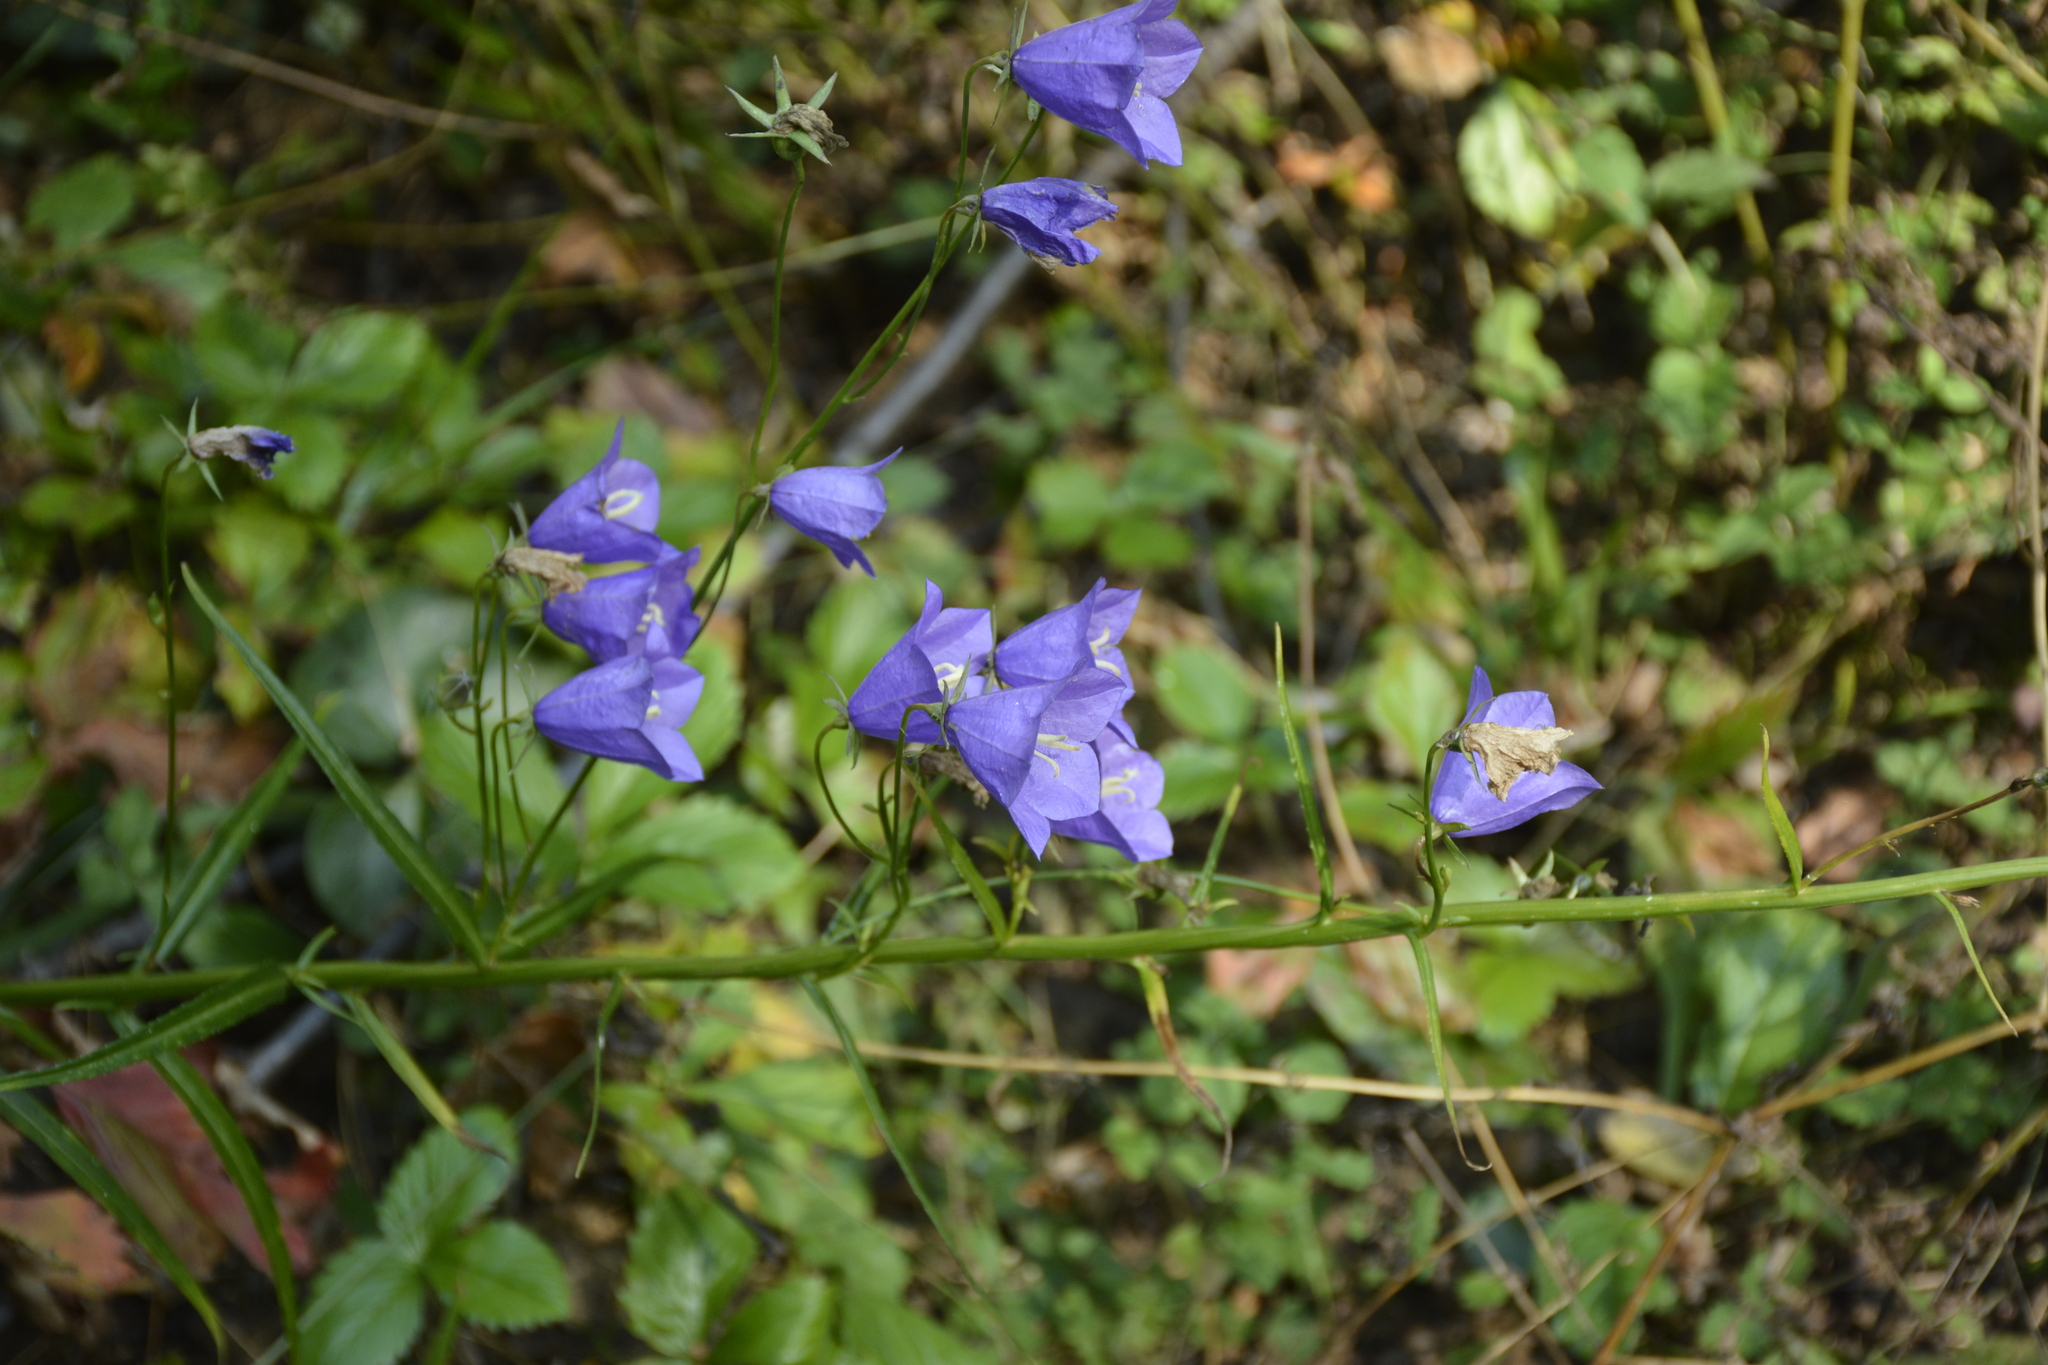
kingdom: Plantae
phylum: Tracheophyta
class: Magnoliopsida
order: Asterales
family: Campanulaceae
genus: Campanula
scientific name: Campanula persicifolia
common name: Peach-leaved bellflower
